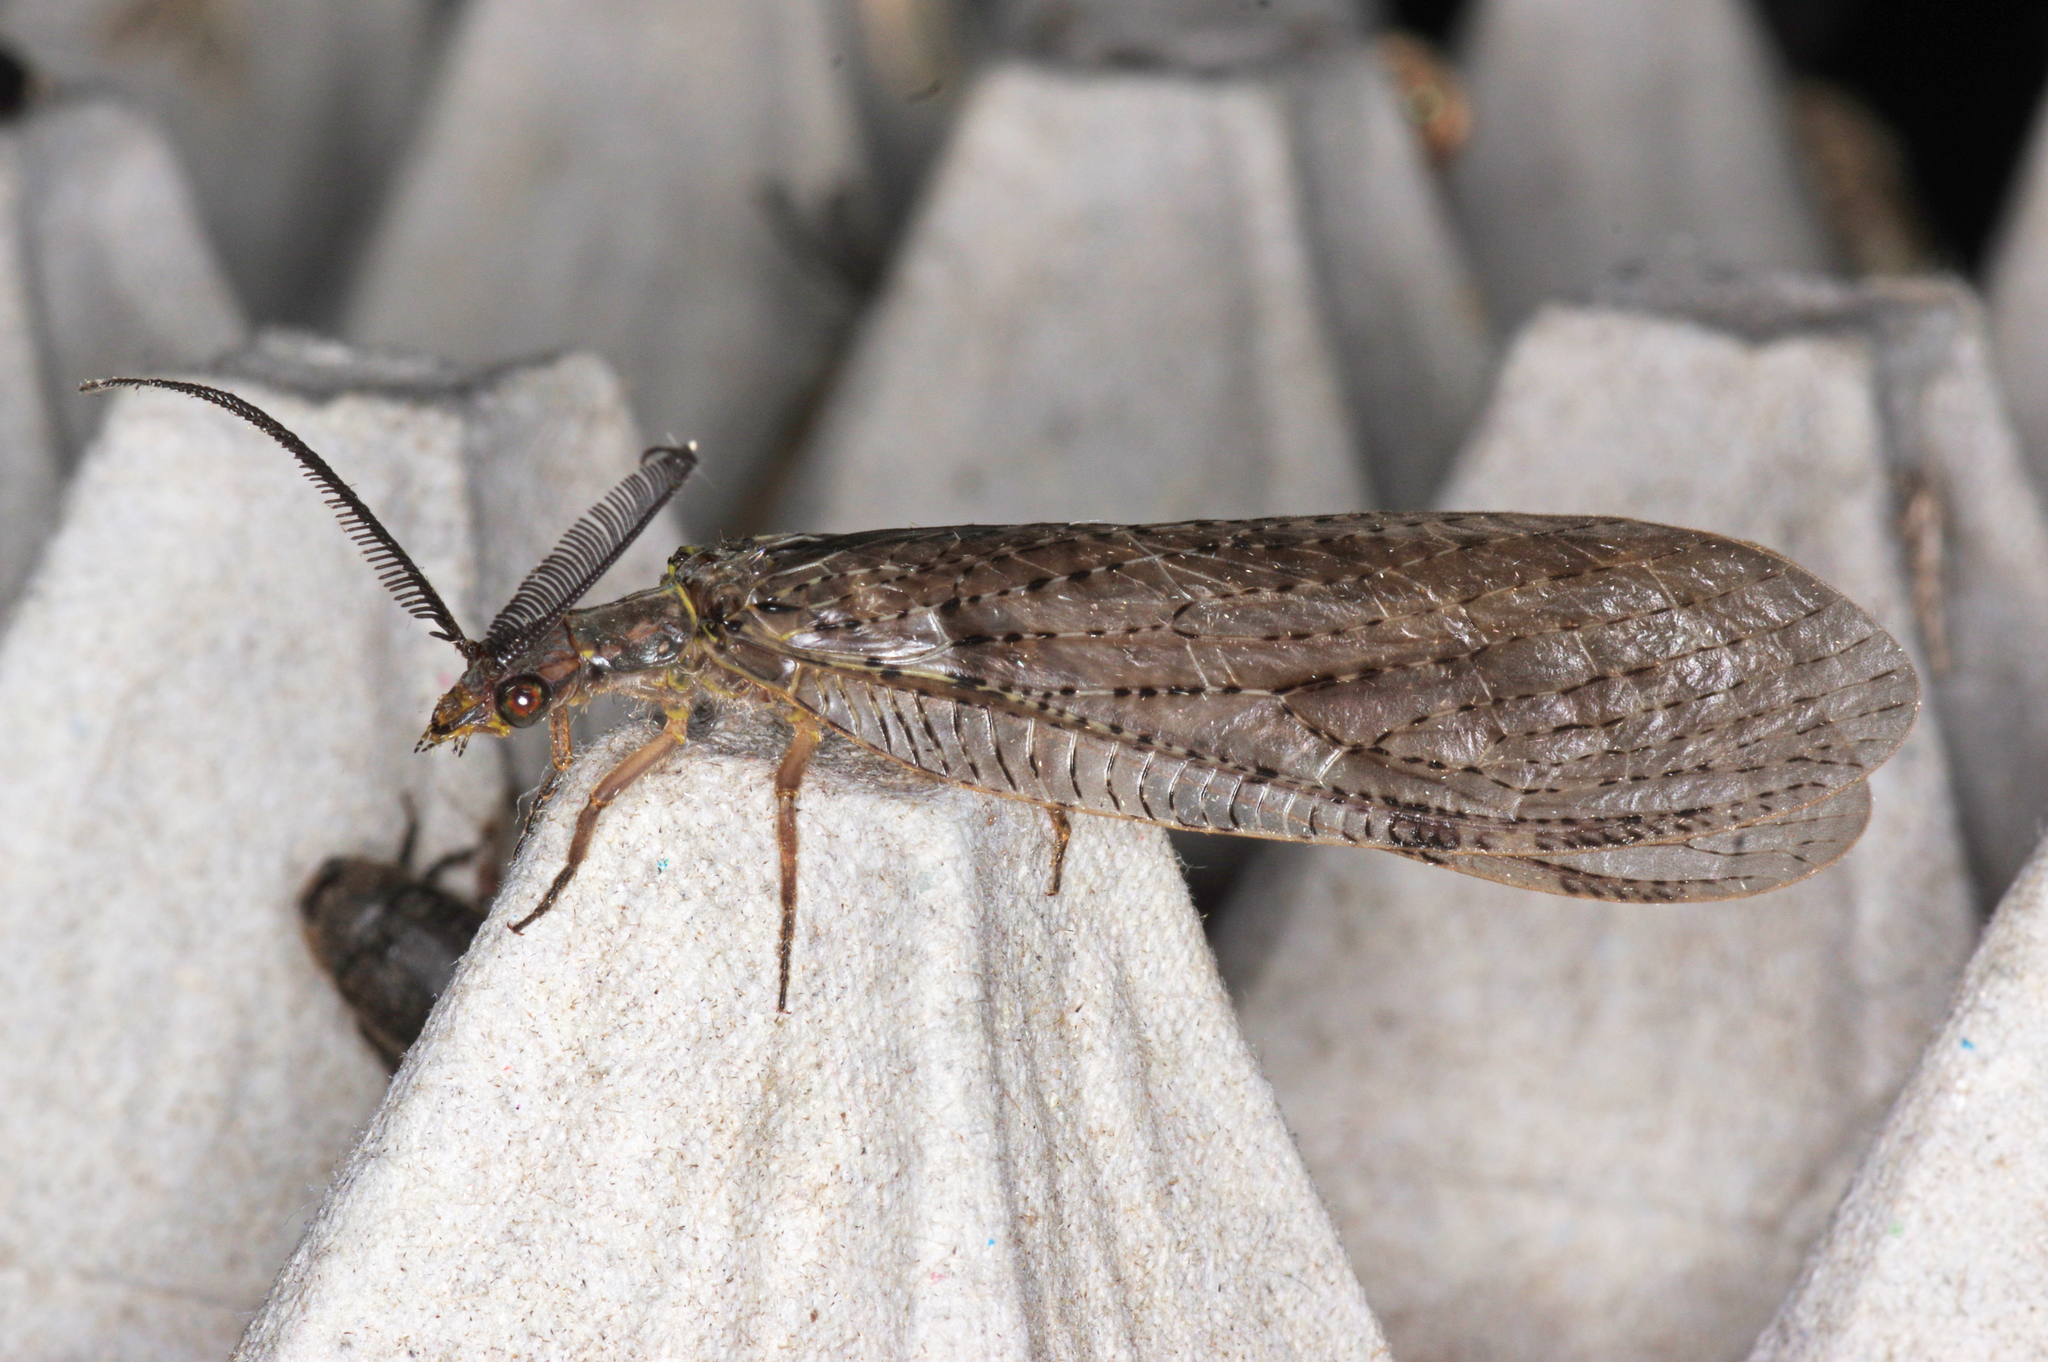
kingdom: Animalia
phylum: Arthropoda
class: Insecta
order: Megaloptera
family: Corydalidae
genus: Chauliodes
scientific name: Chauliodes pectinicornis
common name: Summer fishfly
